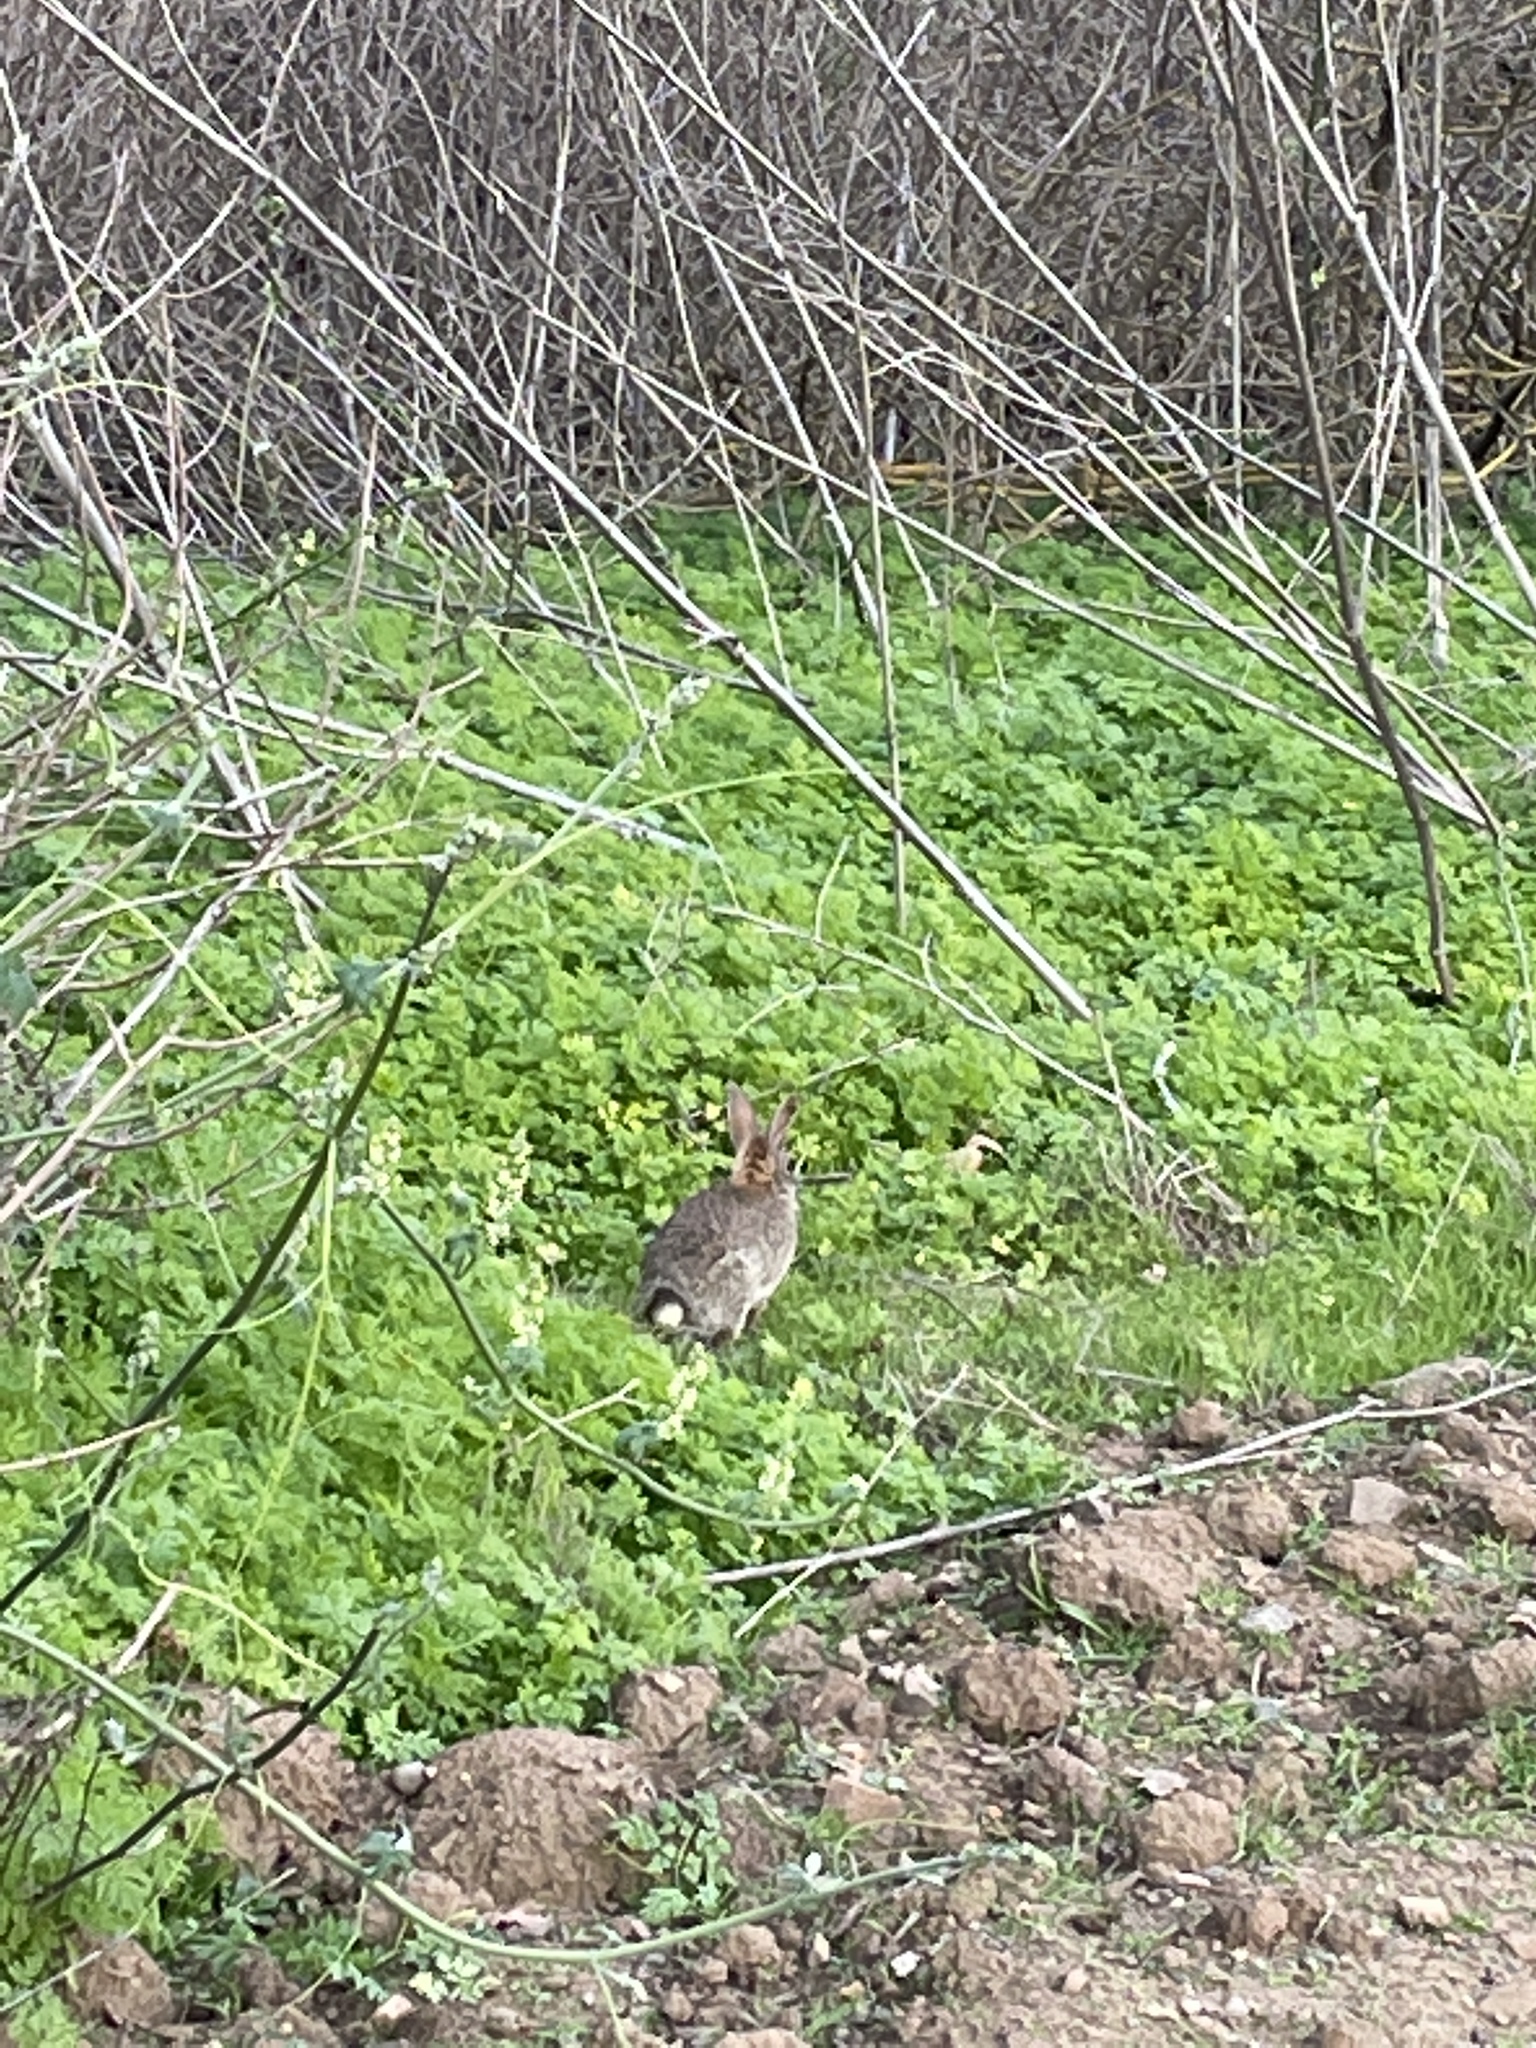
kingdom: Animalia
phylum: Chordata
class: Mammalia
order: Lagomorpha
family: Leporidae
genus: Sylvilagus
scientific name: Sylvilagus bachmani
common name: Brush rabbit
